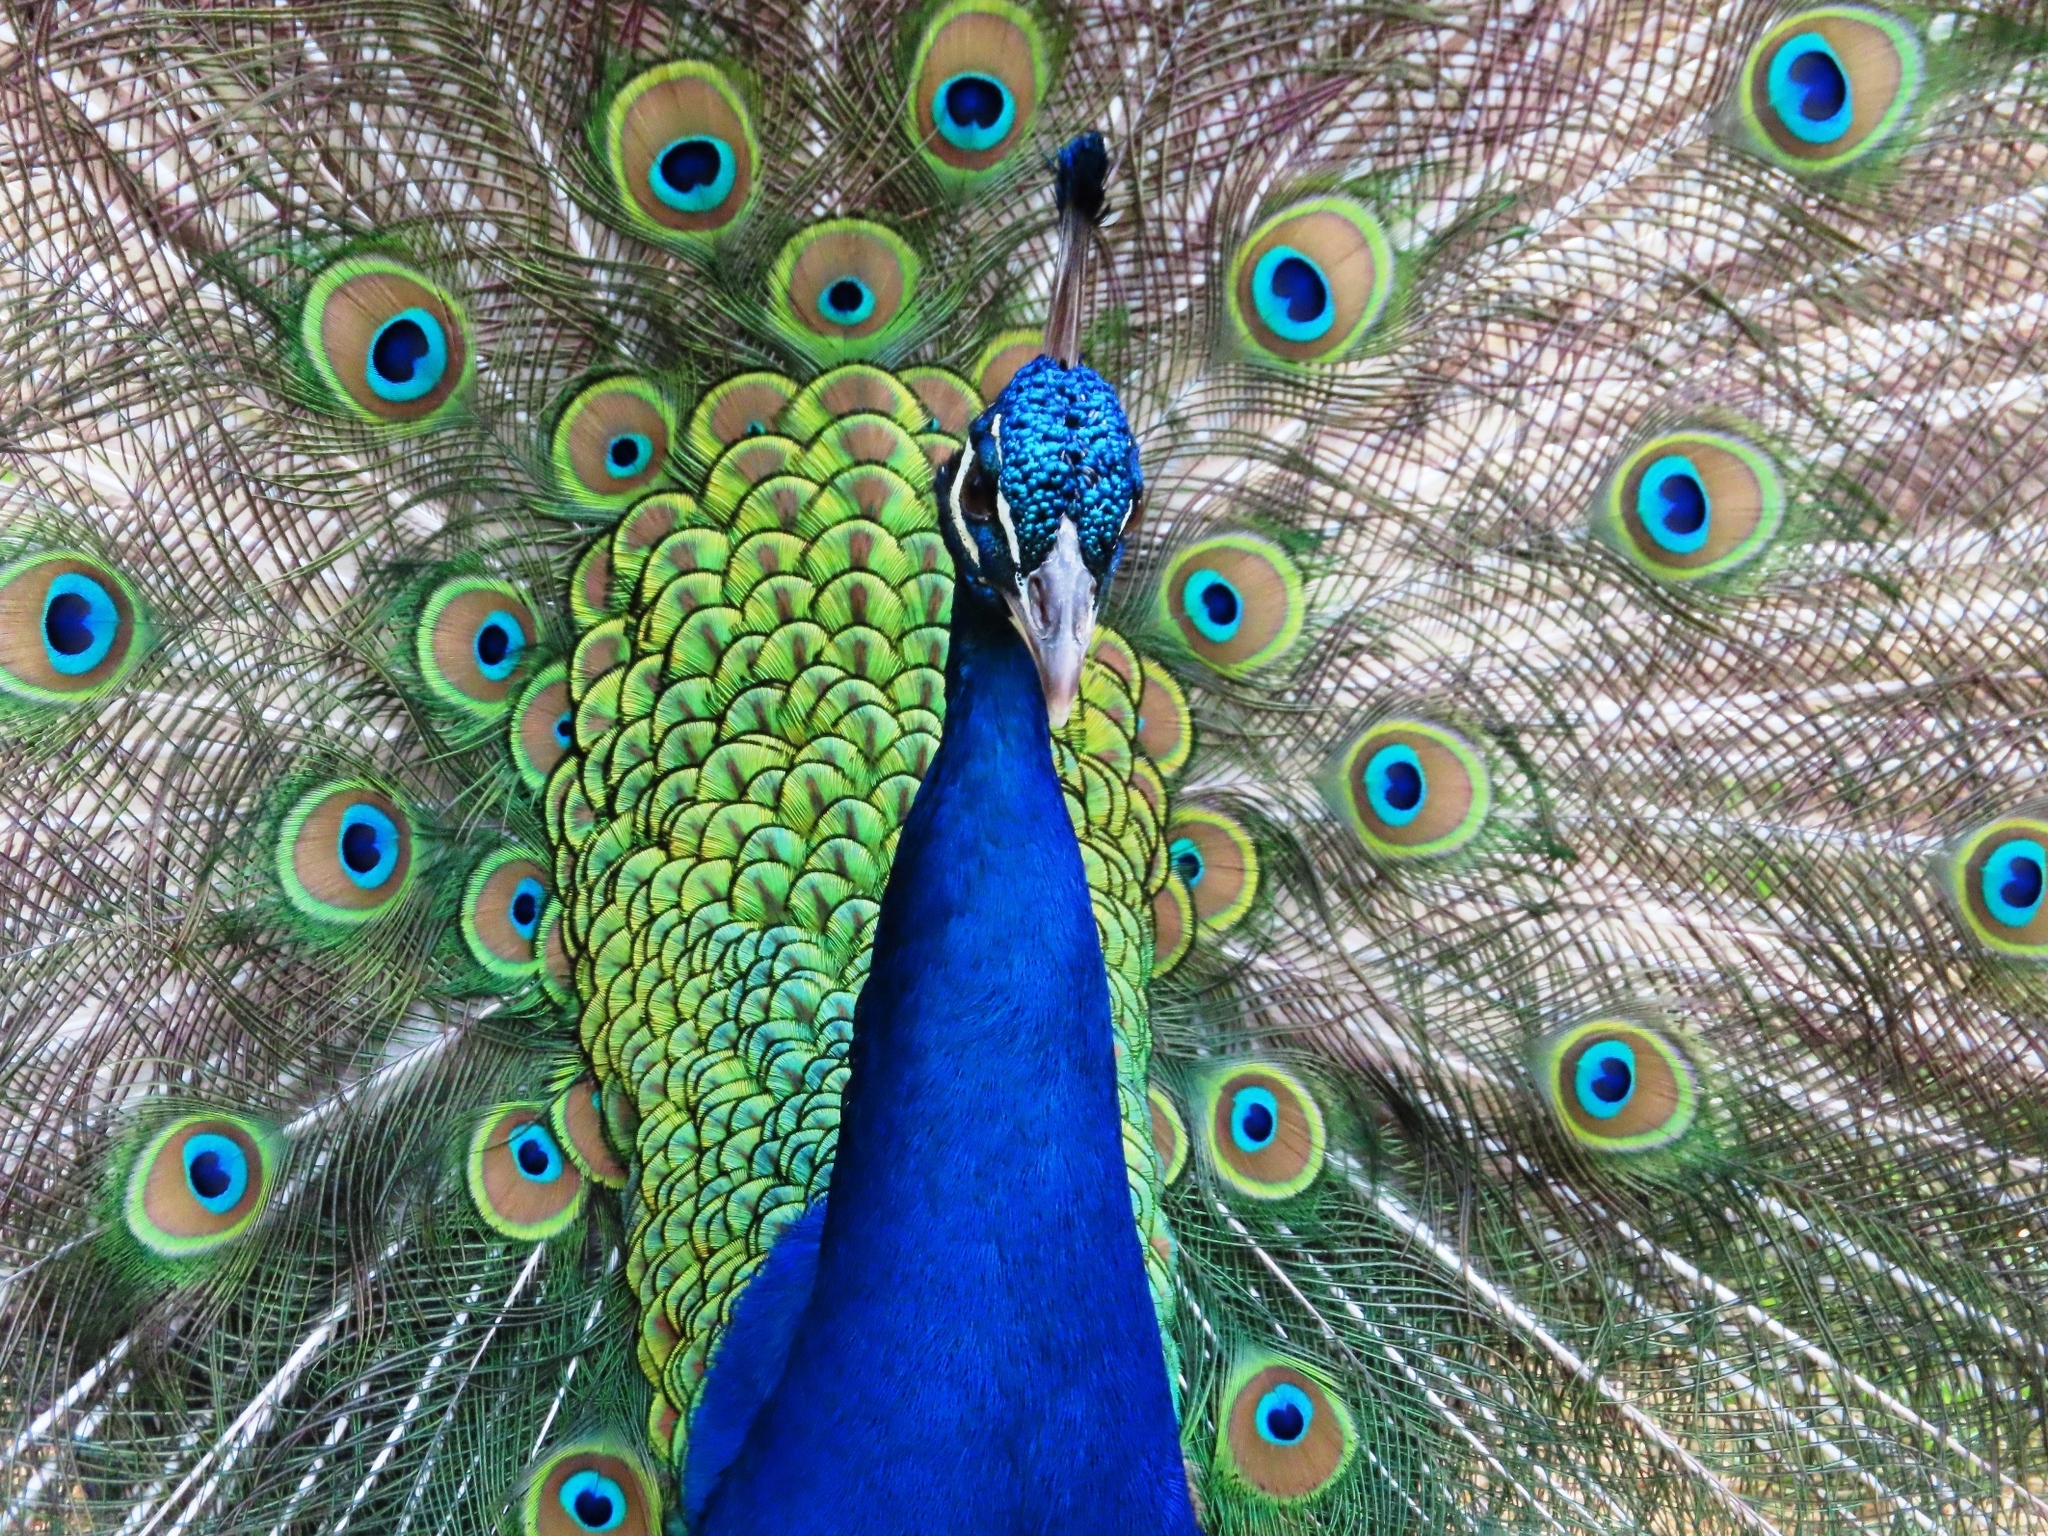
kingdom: Animalia
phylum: Chordata
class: Aves
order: Galliformes
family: Phasianidae
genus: Pavo
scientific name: Pavo cristatus
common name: Indian peafowl
